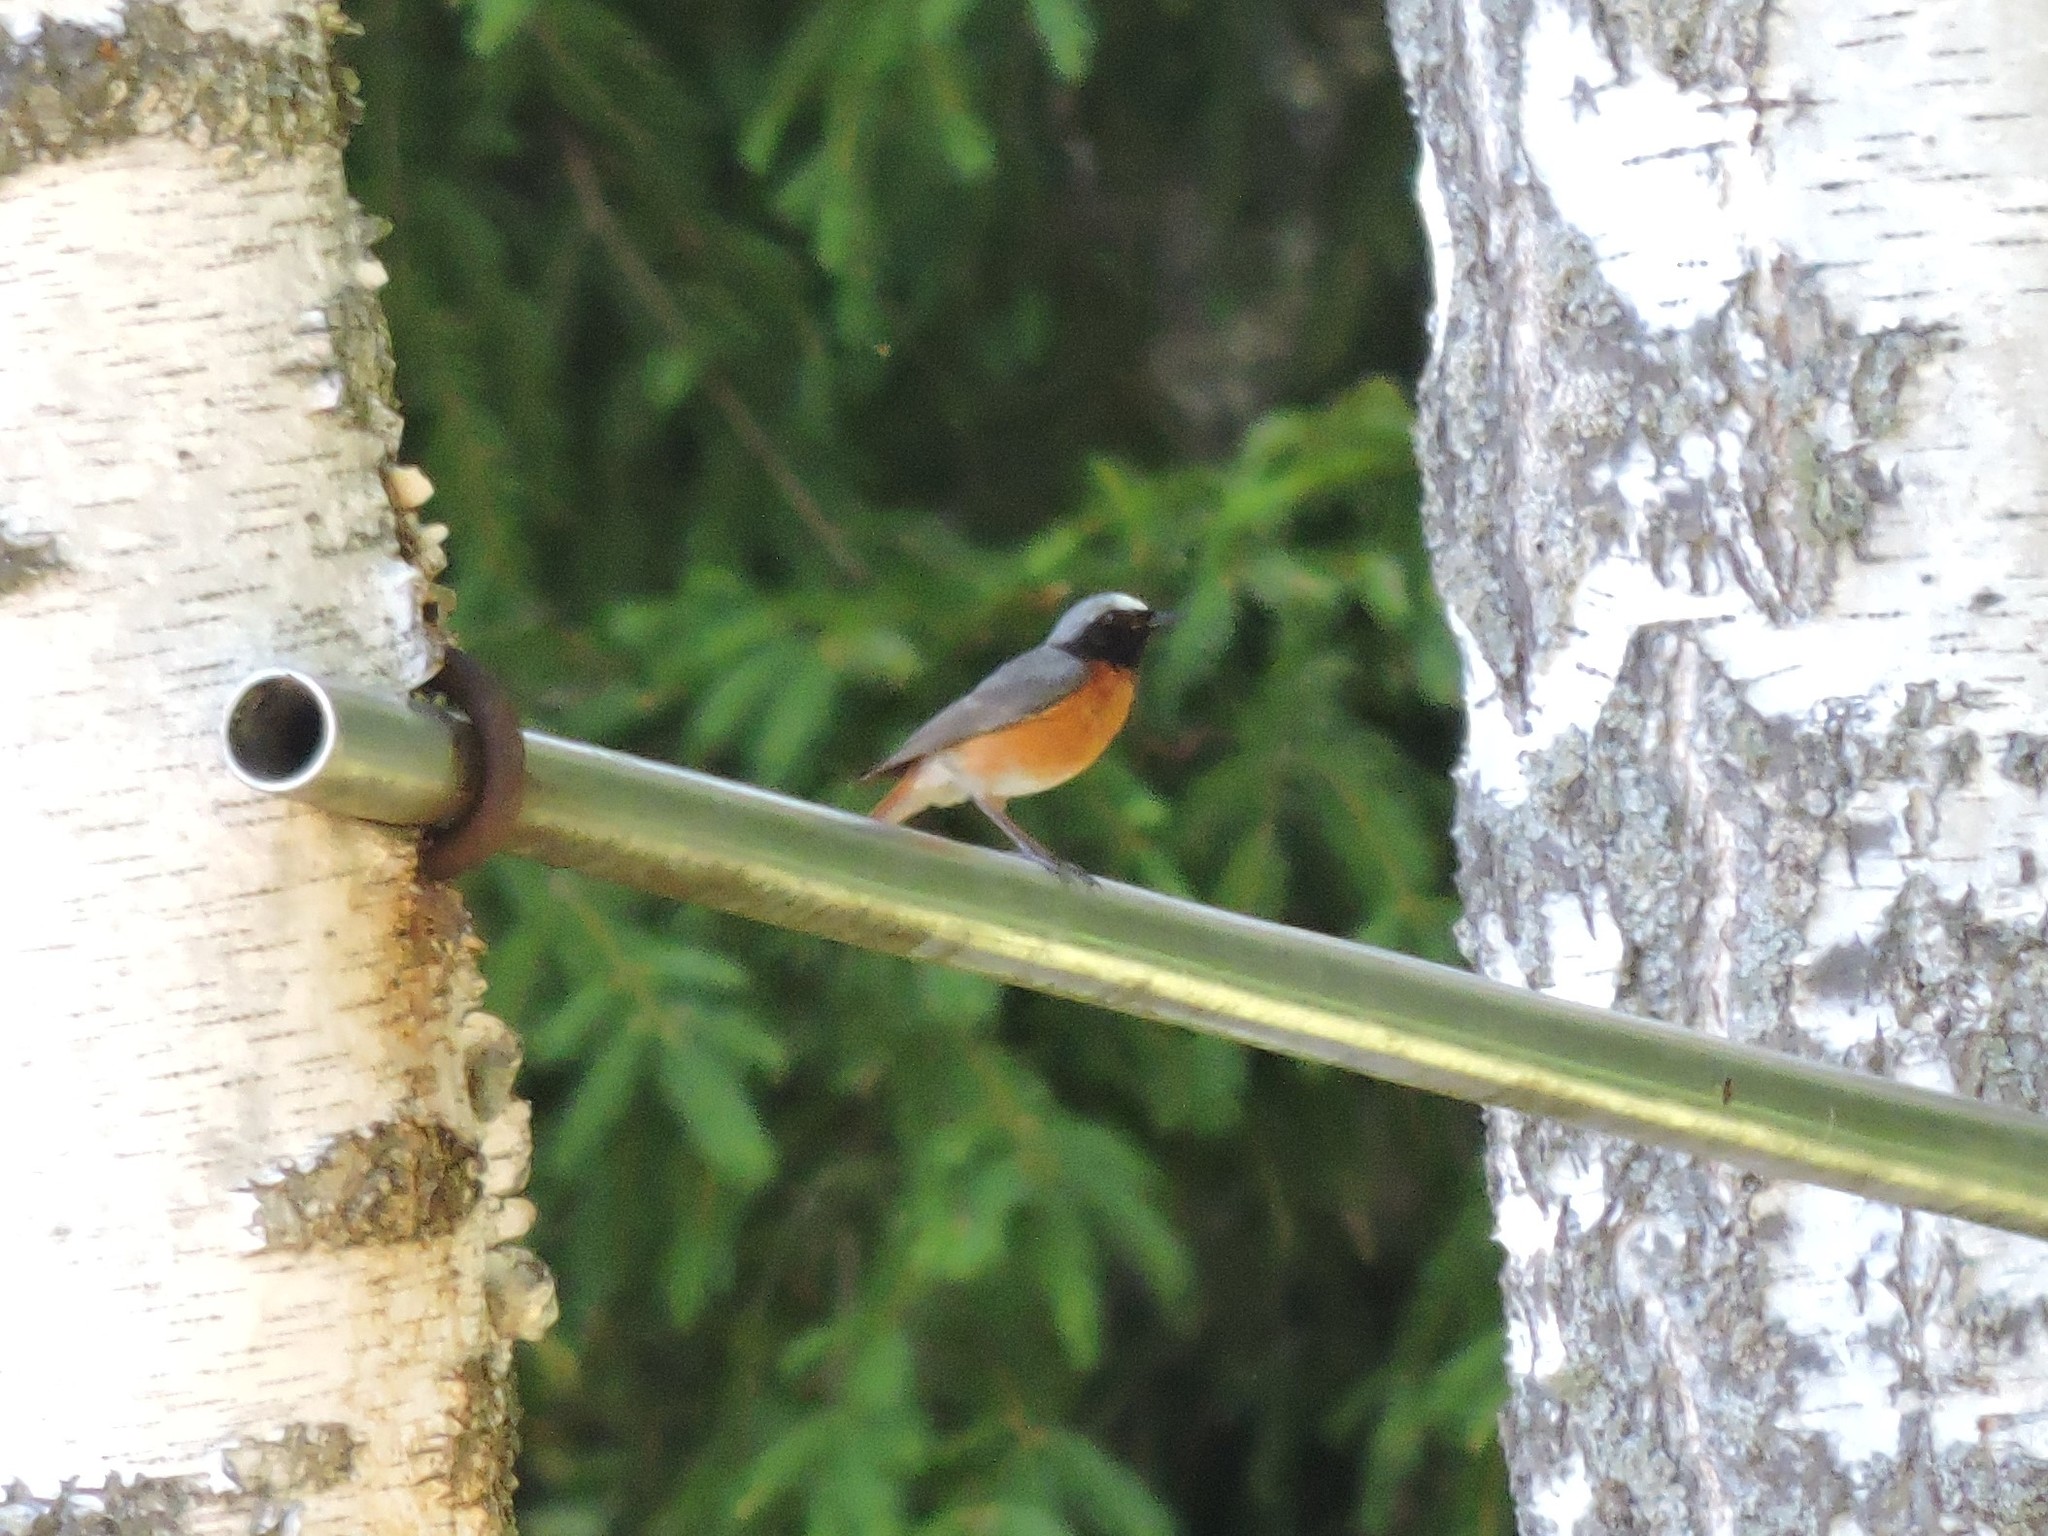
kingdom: Animalia
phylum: Chordata
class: Aves
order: Passeriformes
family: Muscicapidae
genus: Phoenicurus
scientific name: Phoenicurus phoenicurus
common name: Common redstart
